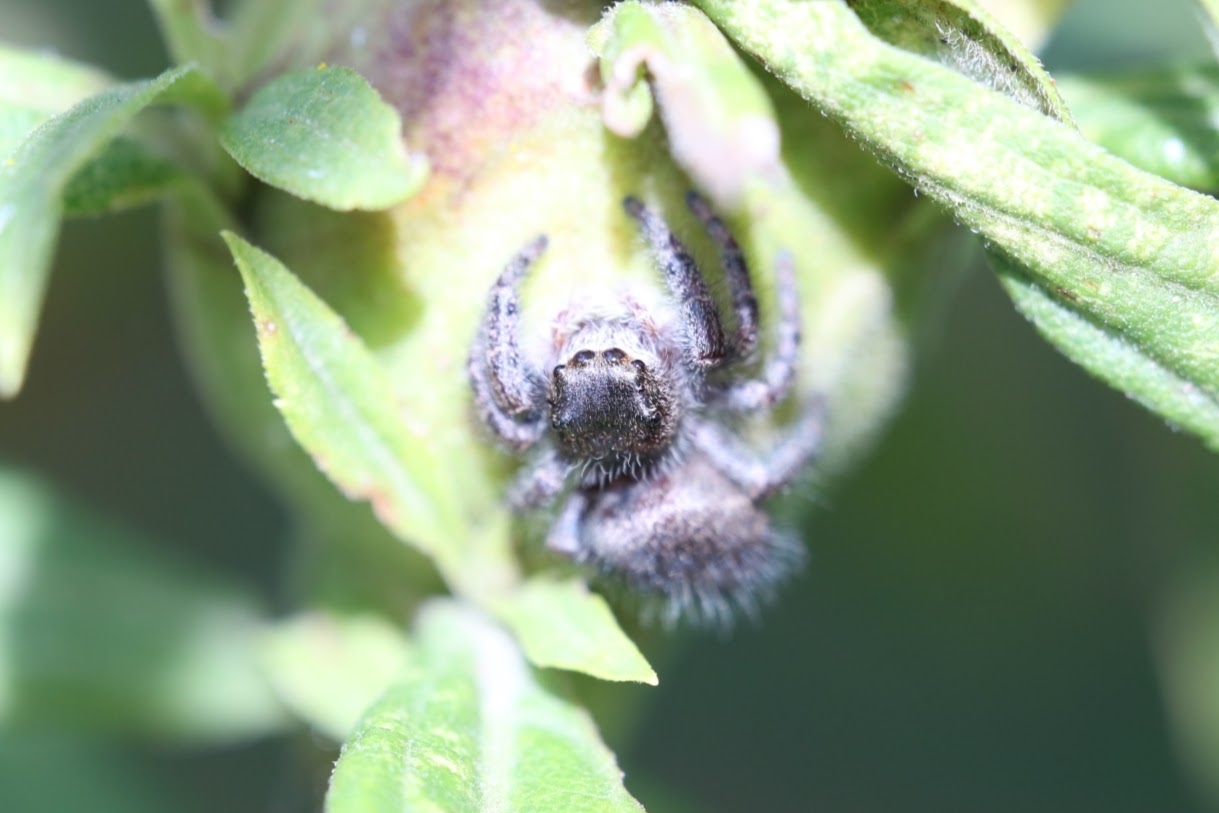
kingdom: Animalia
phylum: Arthropoda
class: Arachnida
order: Araneae
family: Salticidae
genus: Phidippus
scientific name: Phidippus princeps
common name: Grayish jumping spider
